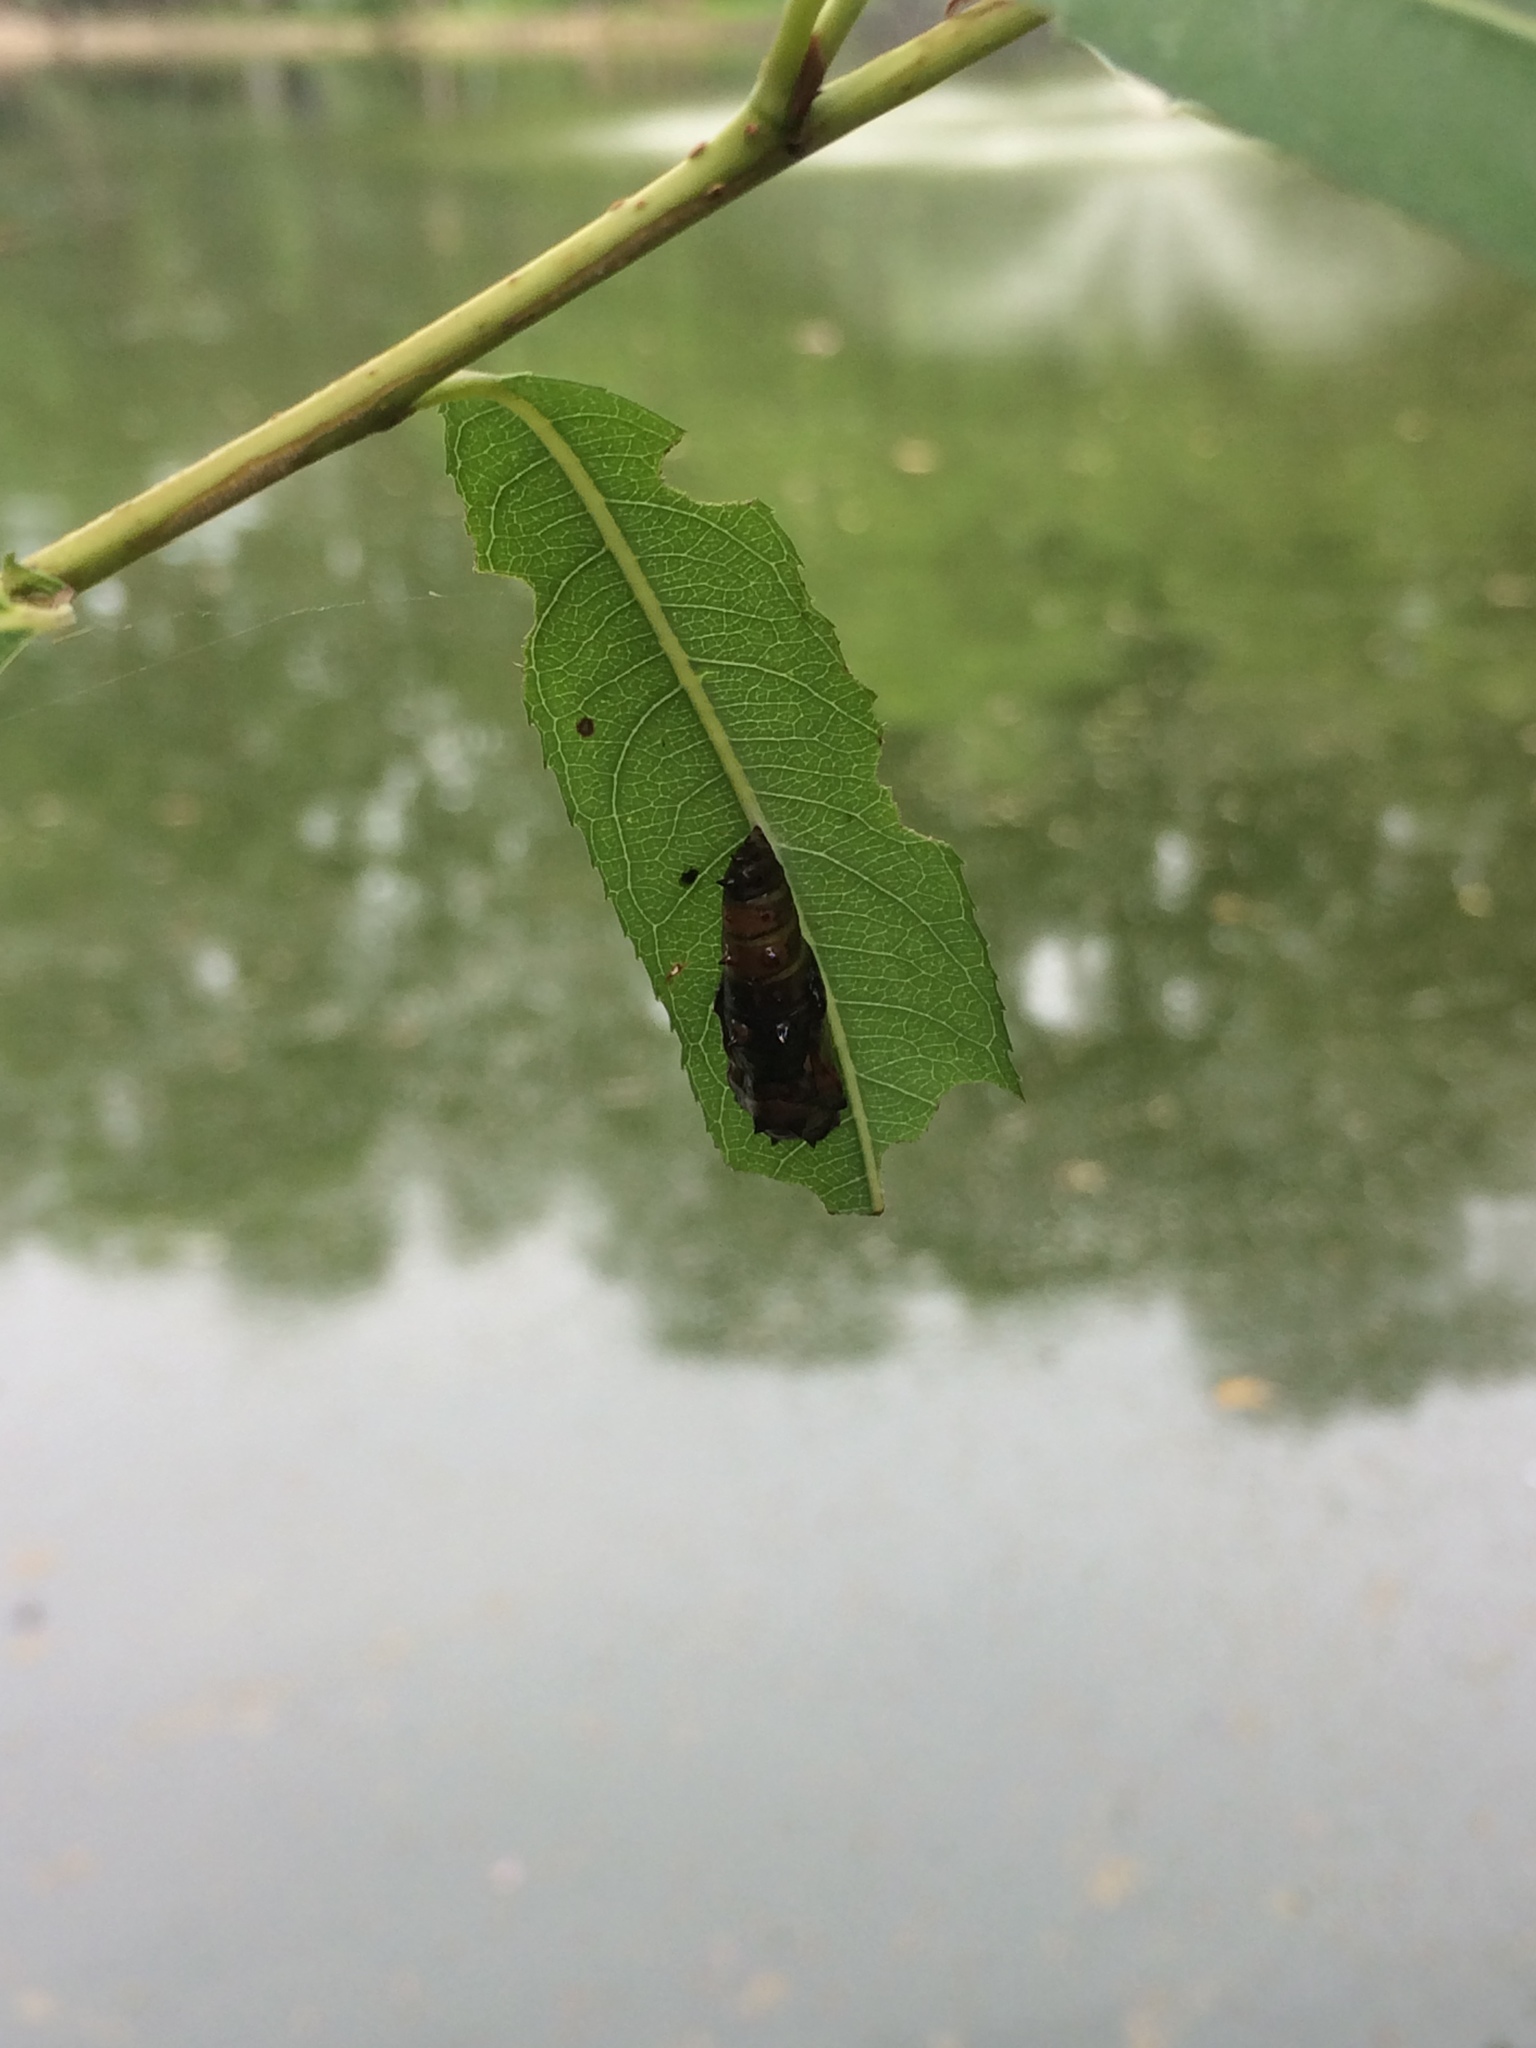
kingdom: Animalia
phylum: Arthropoda
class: Insecta
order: Lepidoptera
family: Nymphalidae
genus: Phalanta
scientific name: Phalanta phalantha
